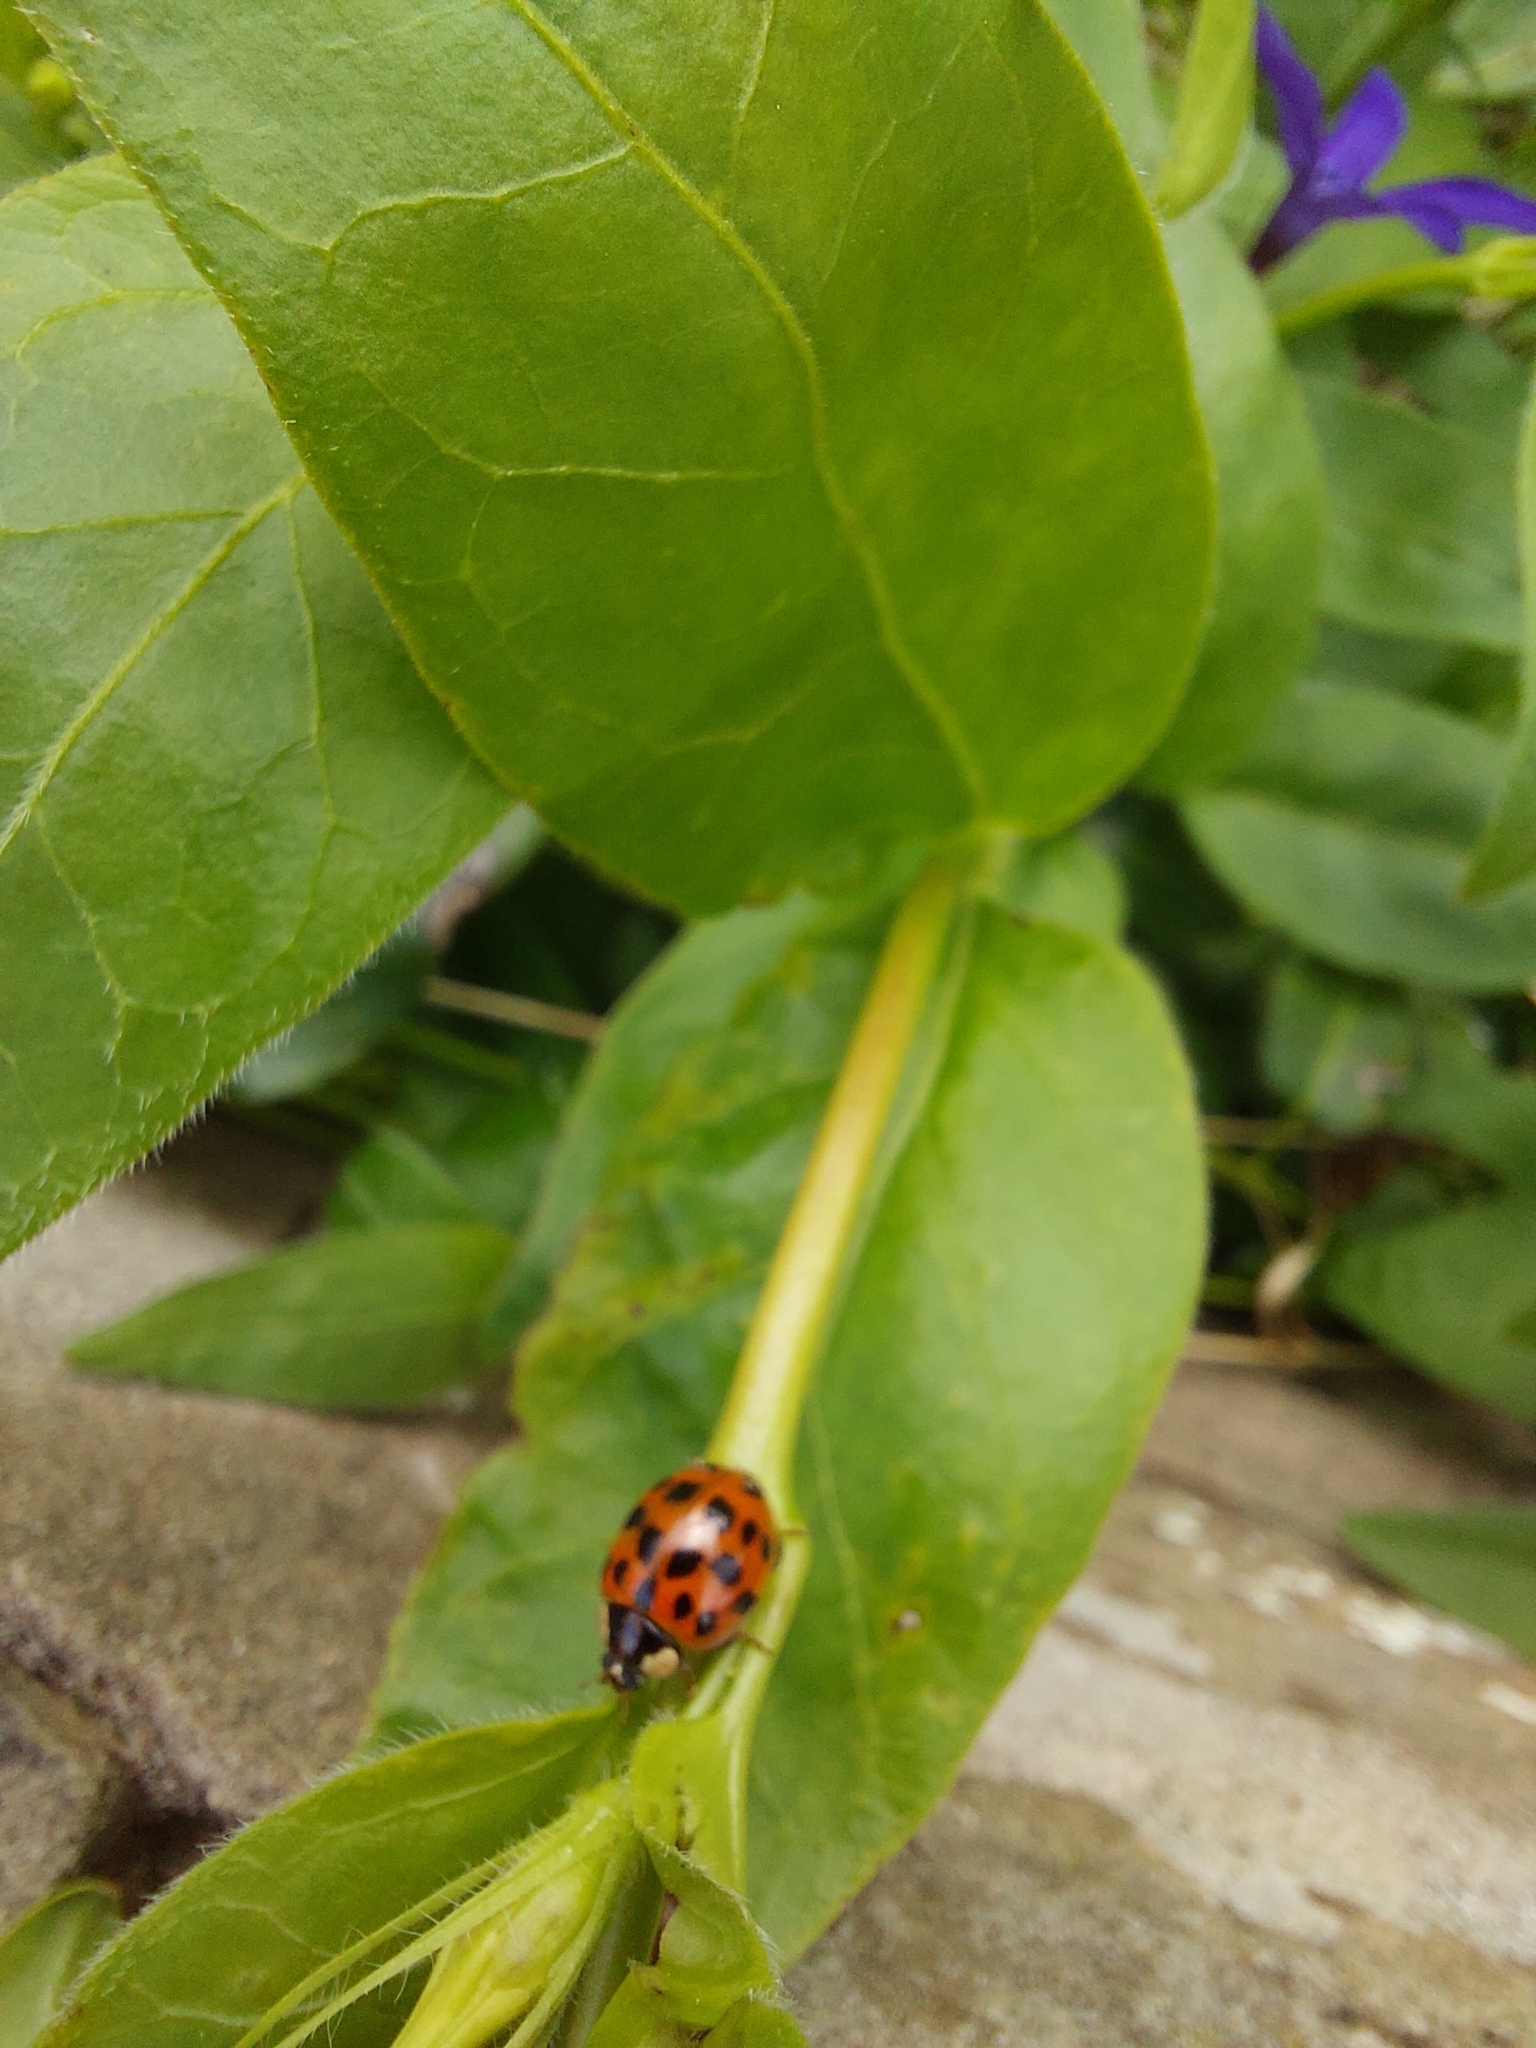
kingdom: Animalia
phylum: Arthropoda
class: Insecta
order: Coleoptera
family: Coccinellidae
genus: Harmonia
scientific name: Harmonia axyridis
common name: Harlequin ladybird
